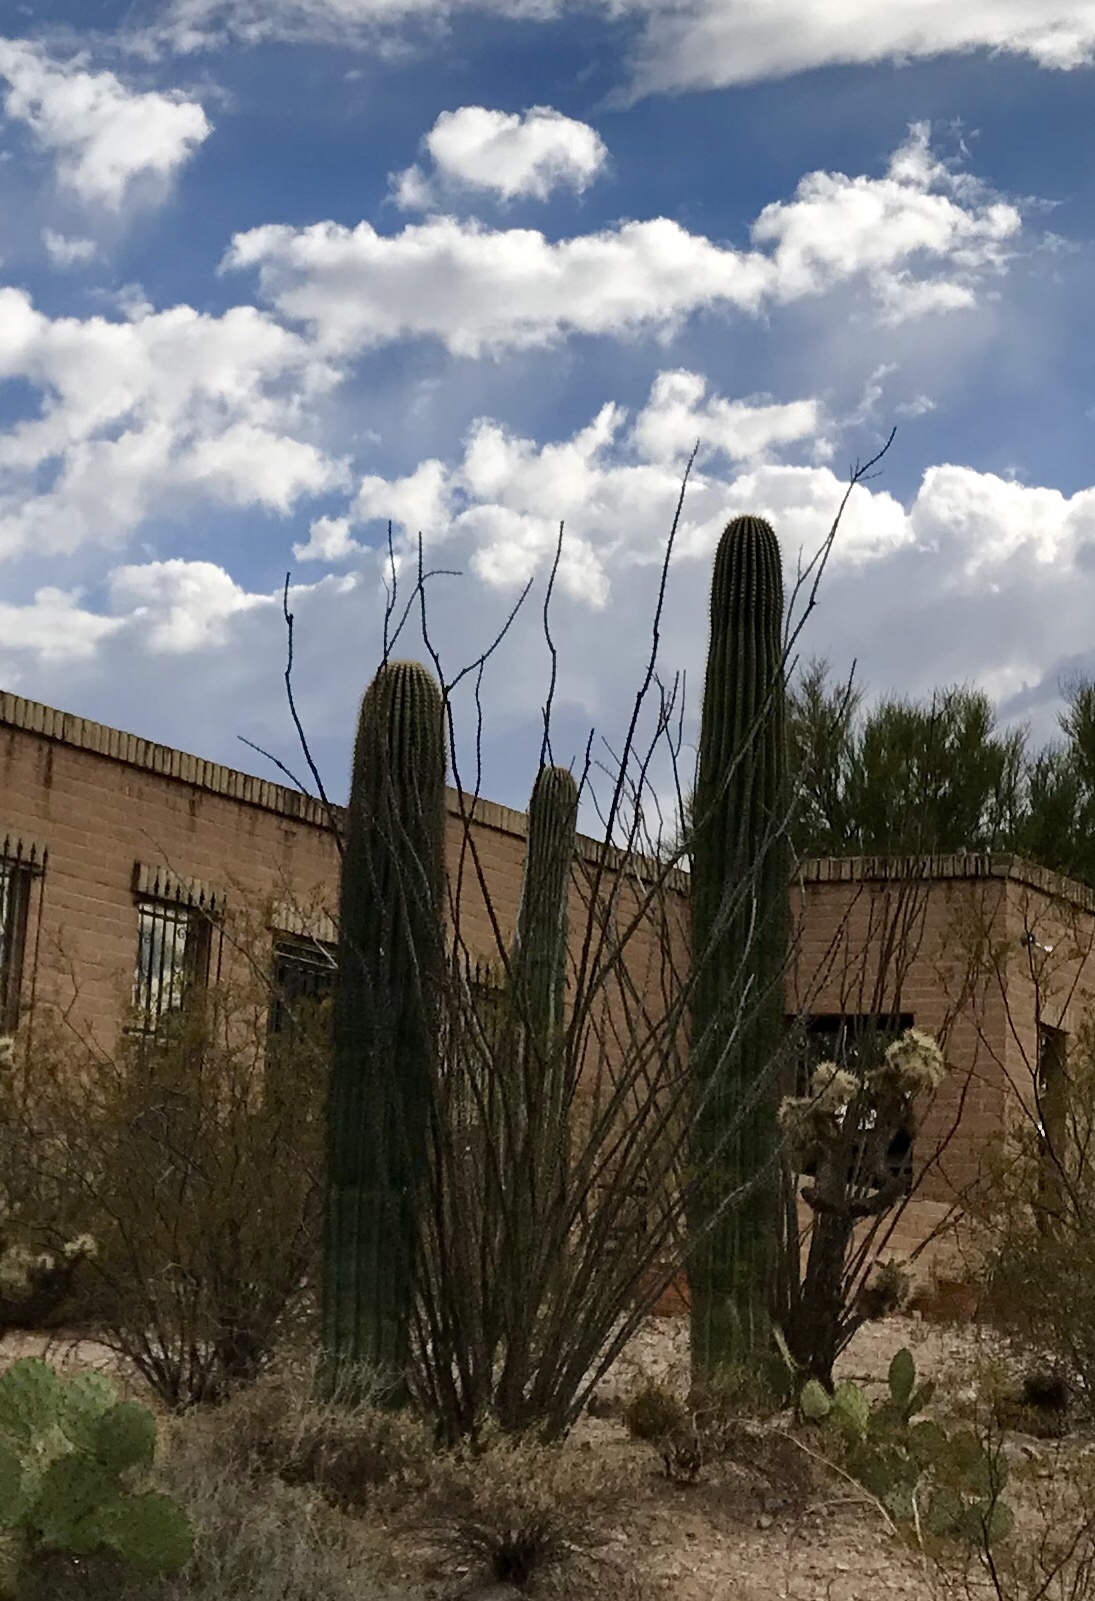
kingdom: Plantae
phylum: Tracheophyta
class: Magnoliopsida
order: Caryophyllales
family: Cactaceae
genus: Carnegiea
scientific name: Carnegiea gigantea
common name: Saguaro
